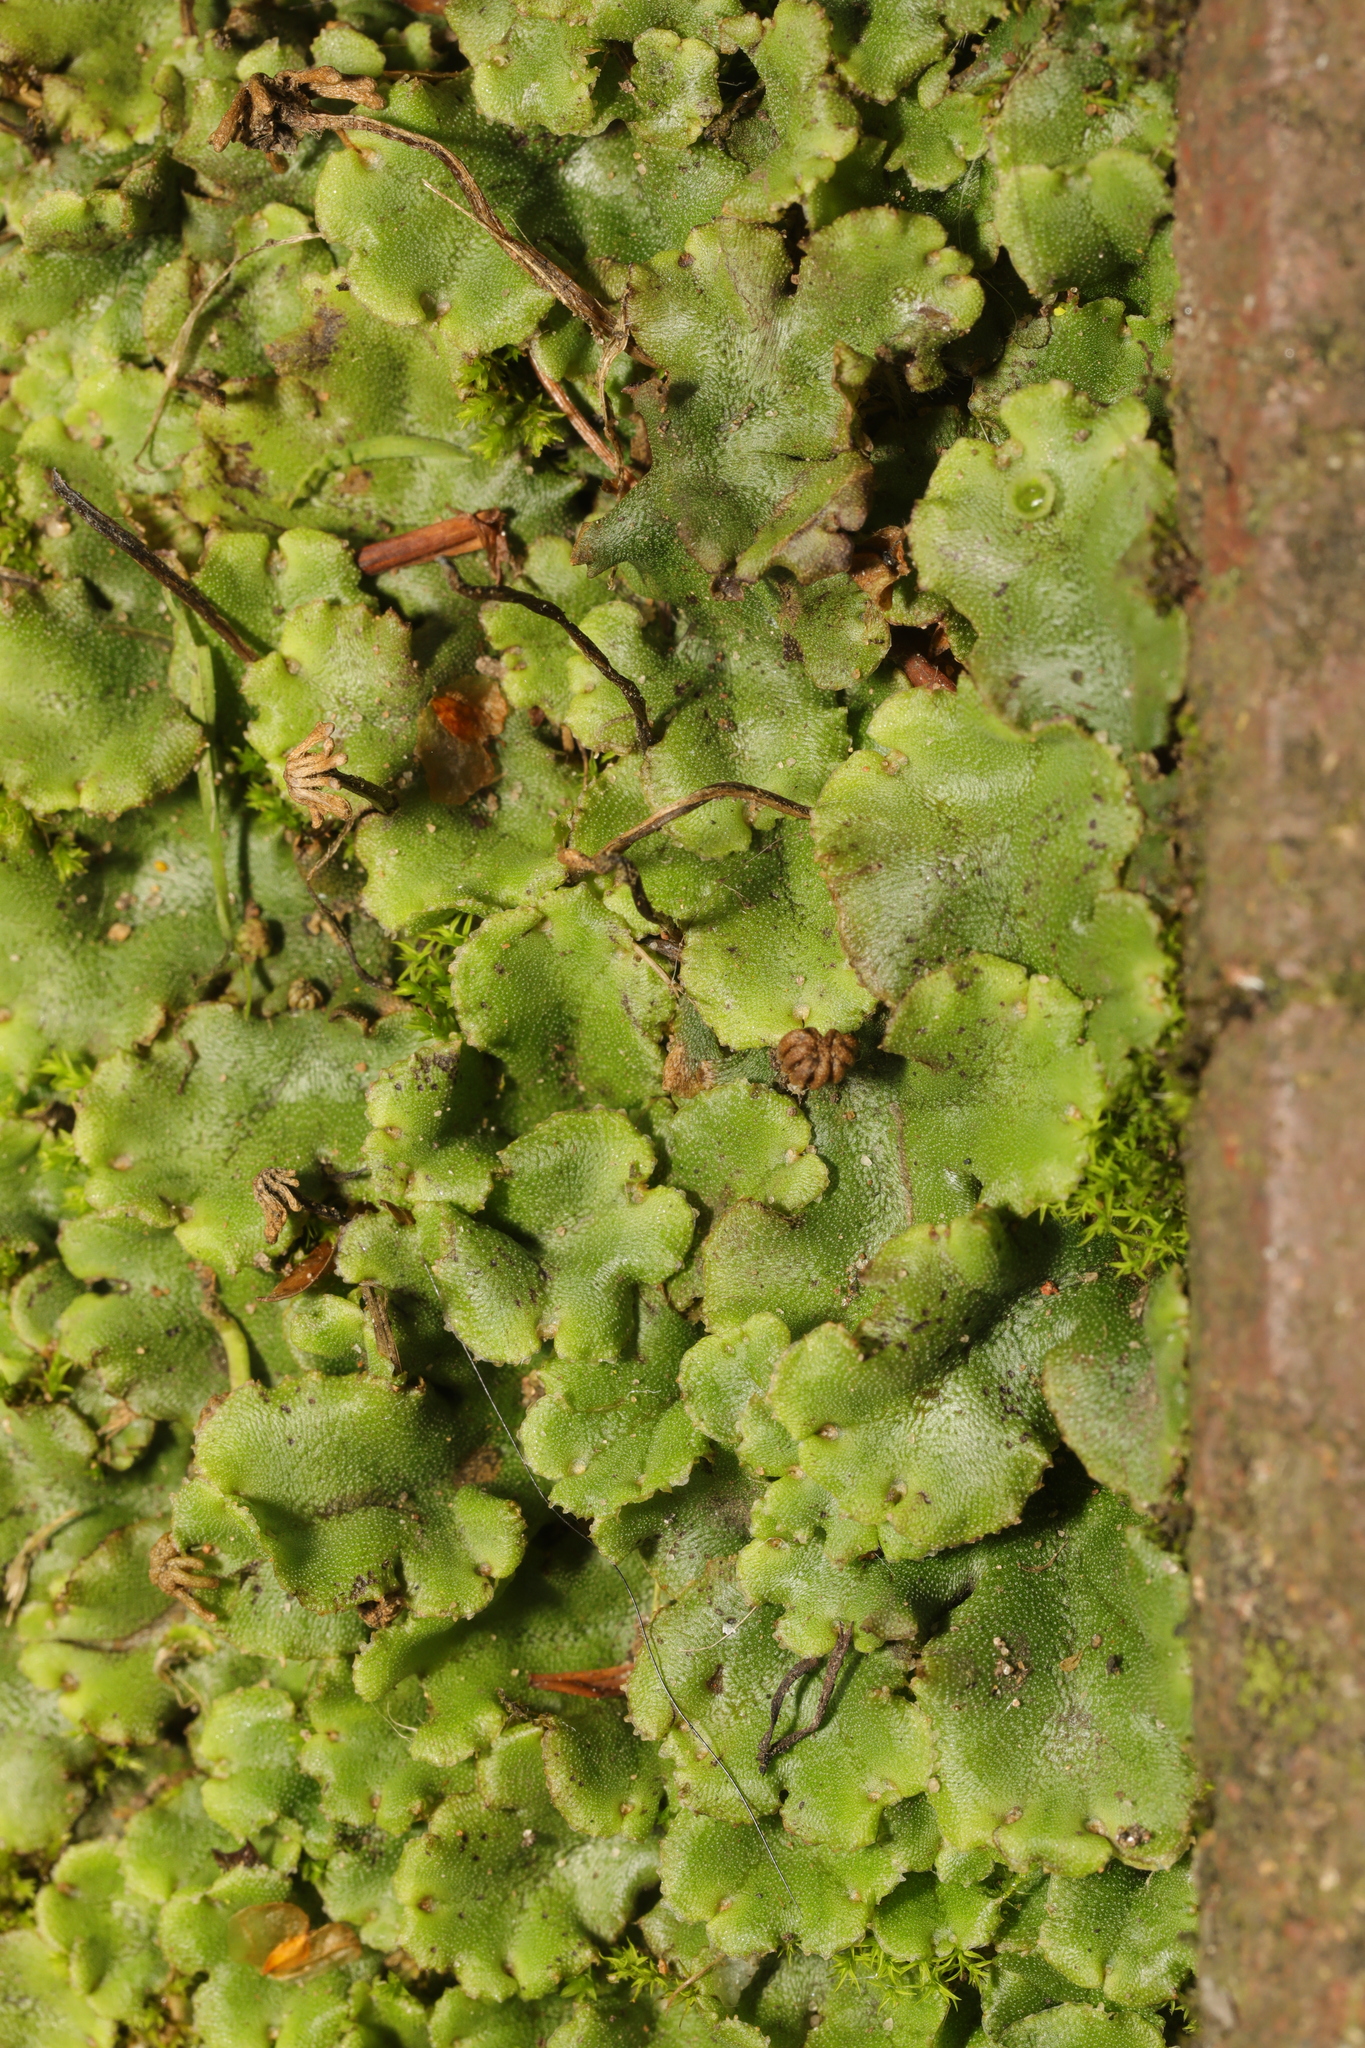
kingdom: Plantae
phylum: Marchantiophyta
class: Marchantiopsida
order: Marchantiales
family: Marchantiaceae
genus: Marchantia
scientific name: Marchantia polymorpha
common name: Common liverwort
